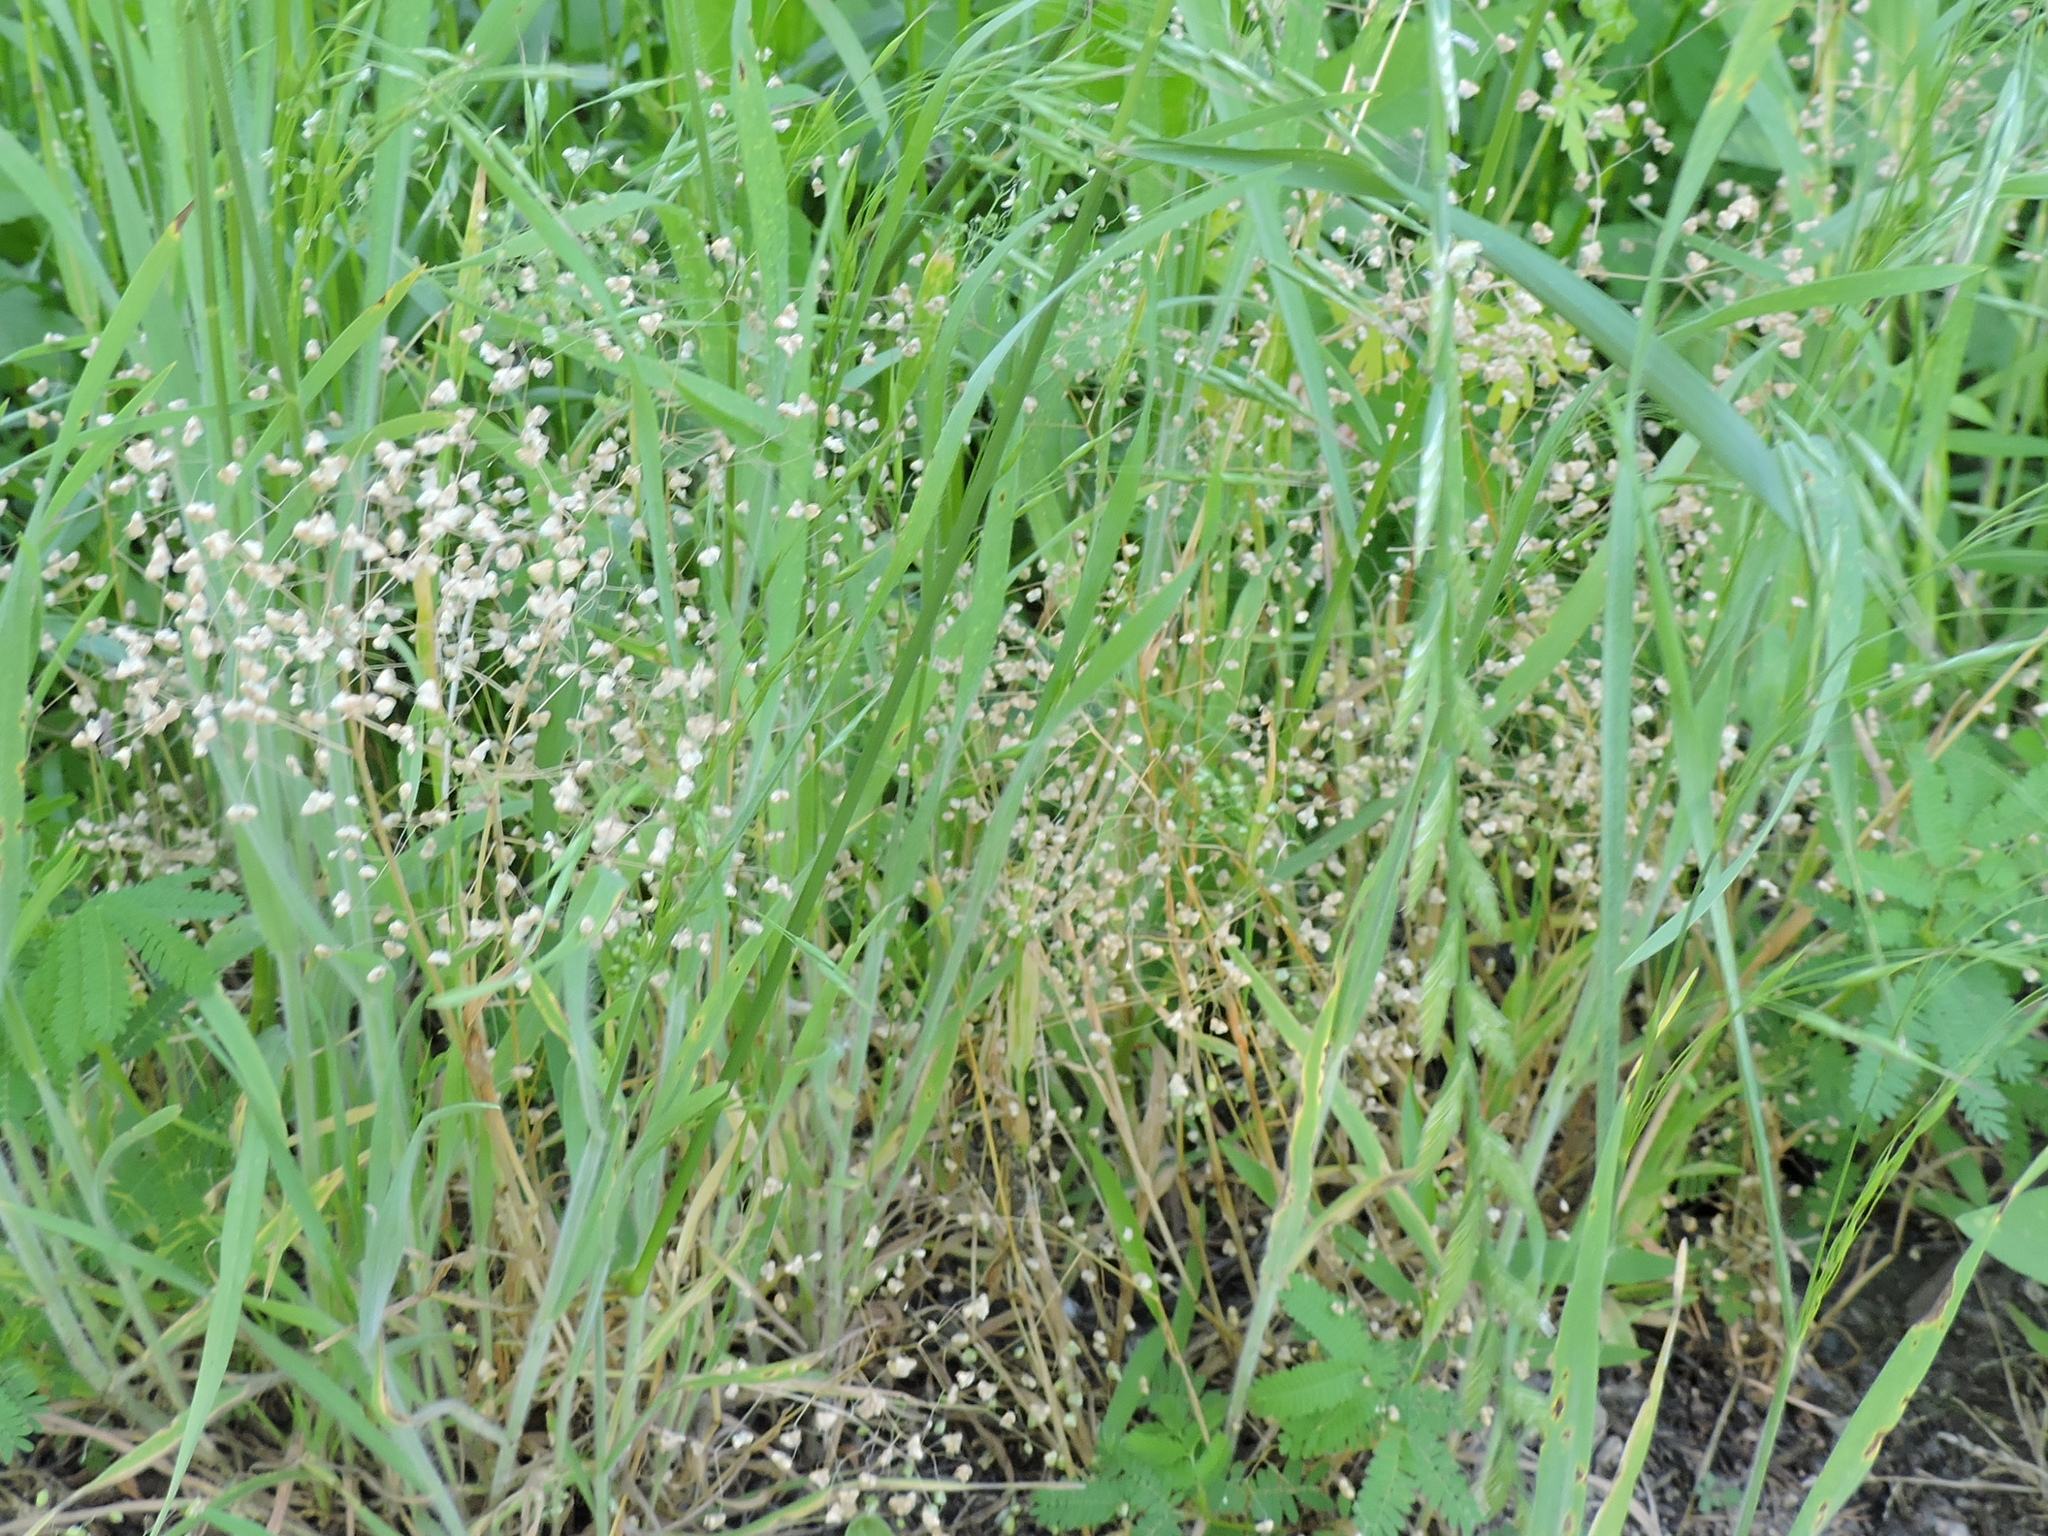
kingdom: Plantae
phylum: Tracheophyta
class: Liliopsida
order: Poales
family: Poaceae
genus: Briza
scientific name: Briza minor
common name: Lesser quaking-grass
